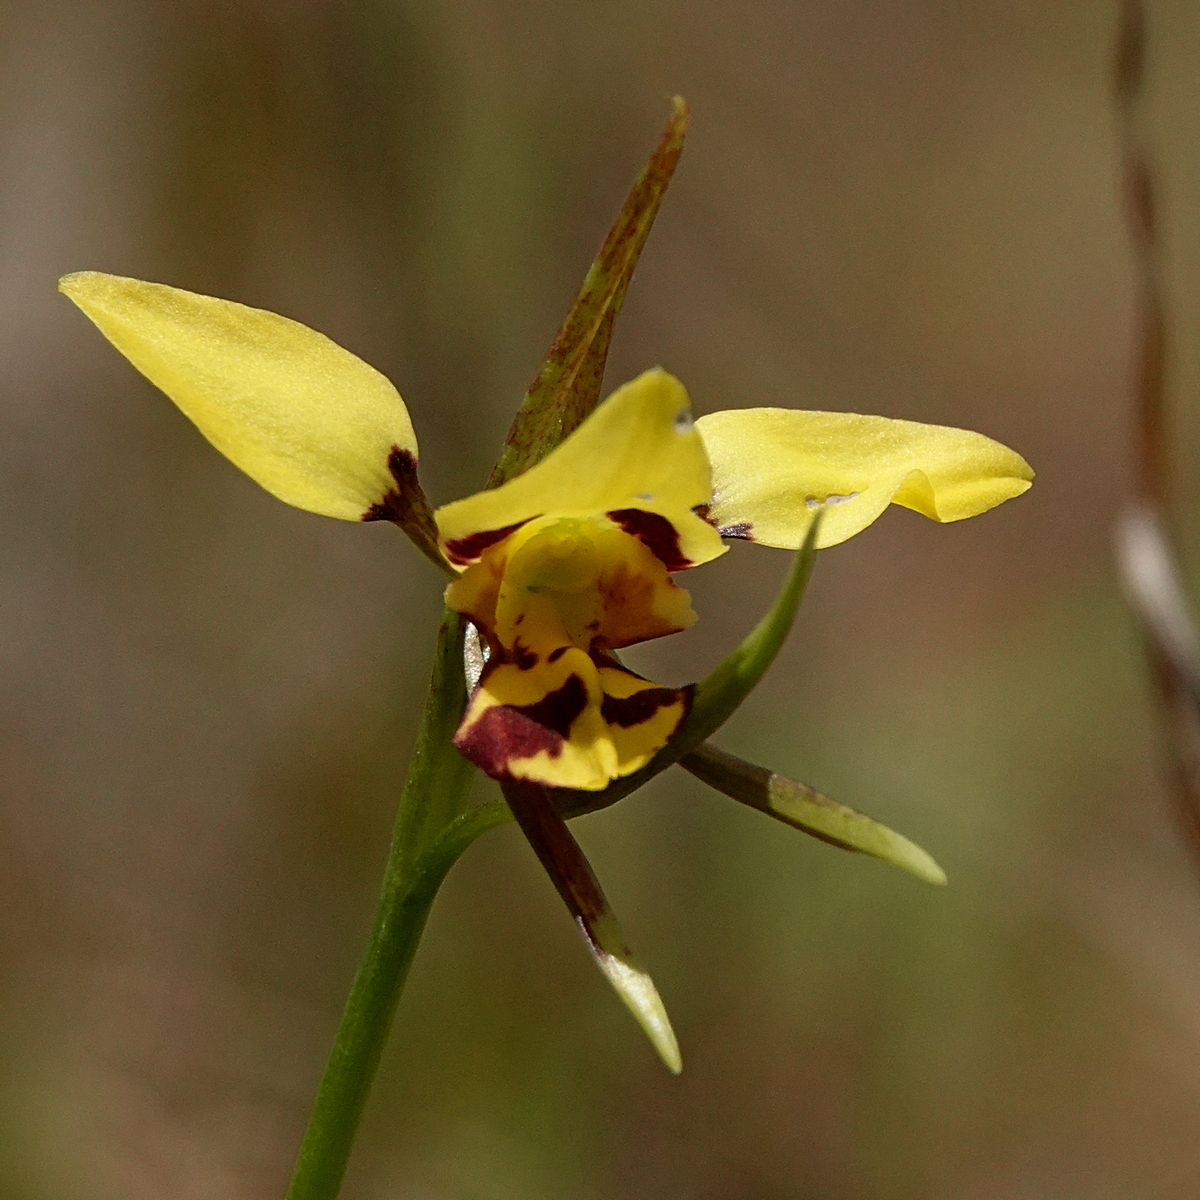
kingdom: Plantae
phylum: Tracheophyta
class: Liliopsida
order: Asparagales
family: Orchidaceae
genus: Diuris
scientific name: Diuris sulphurea
